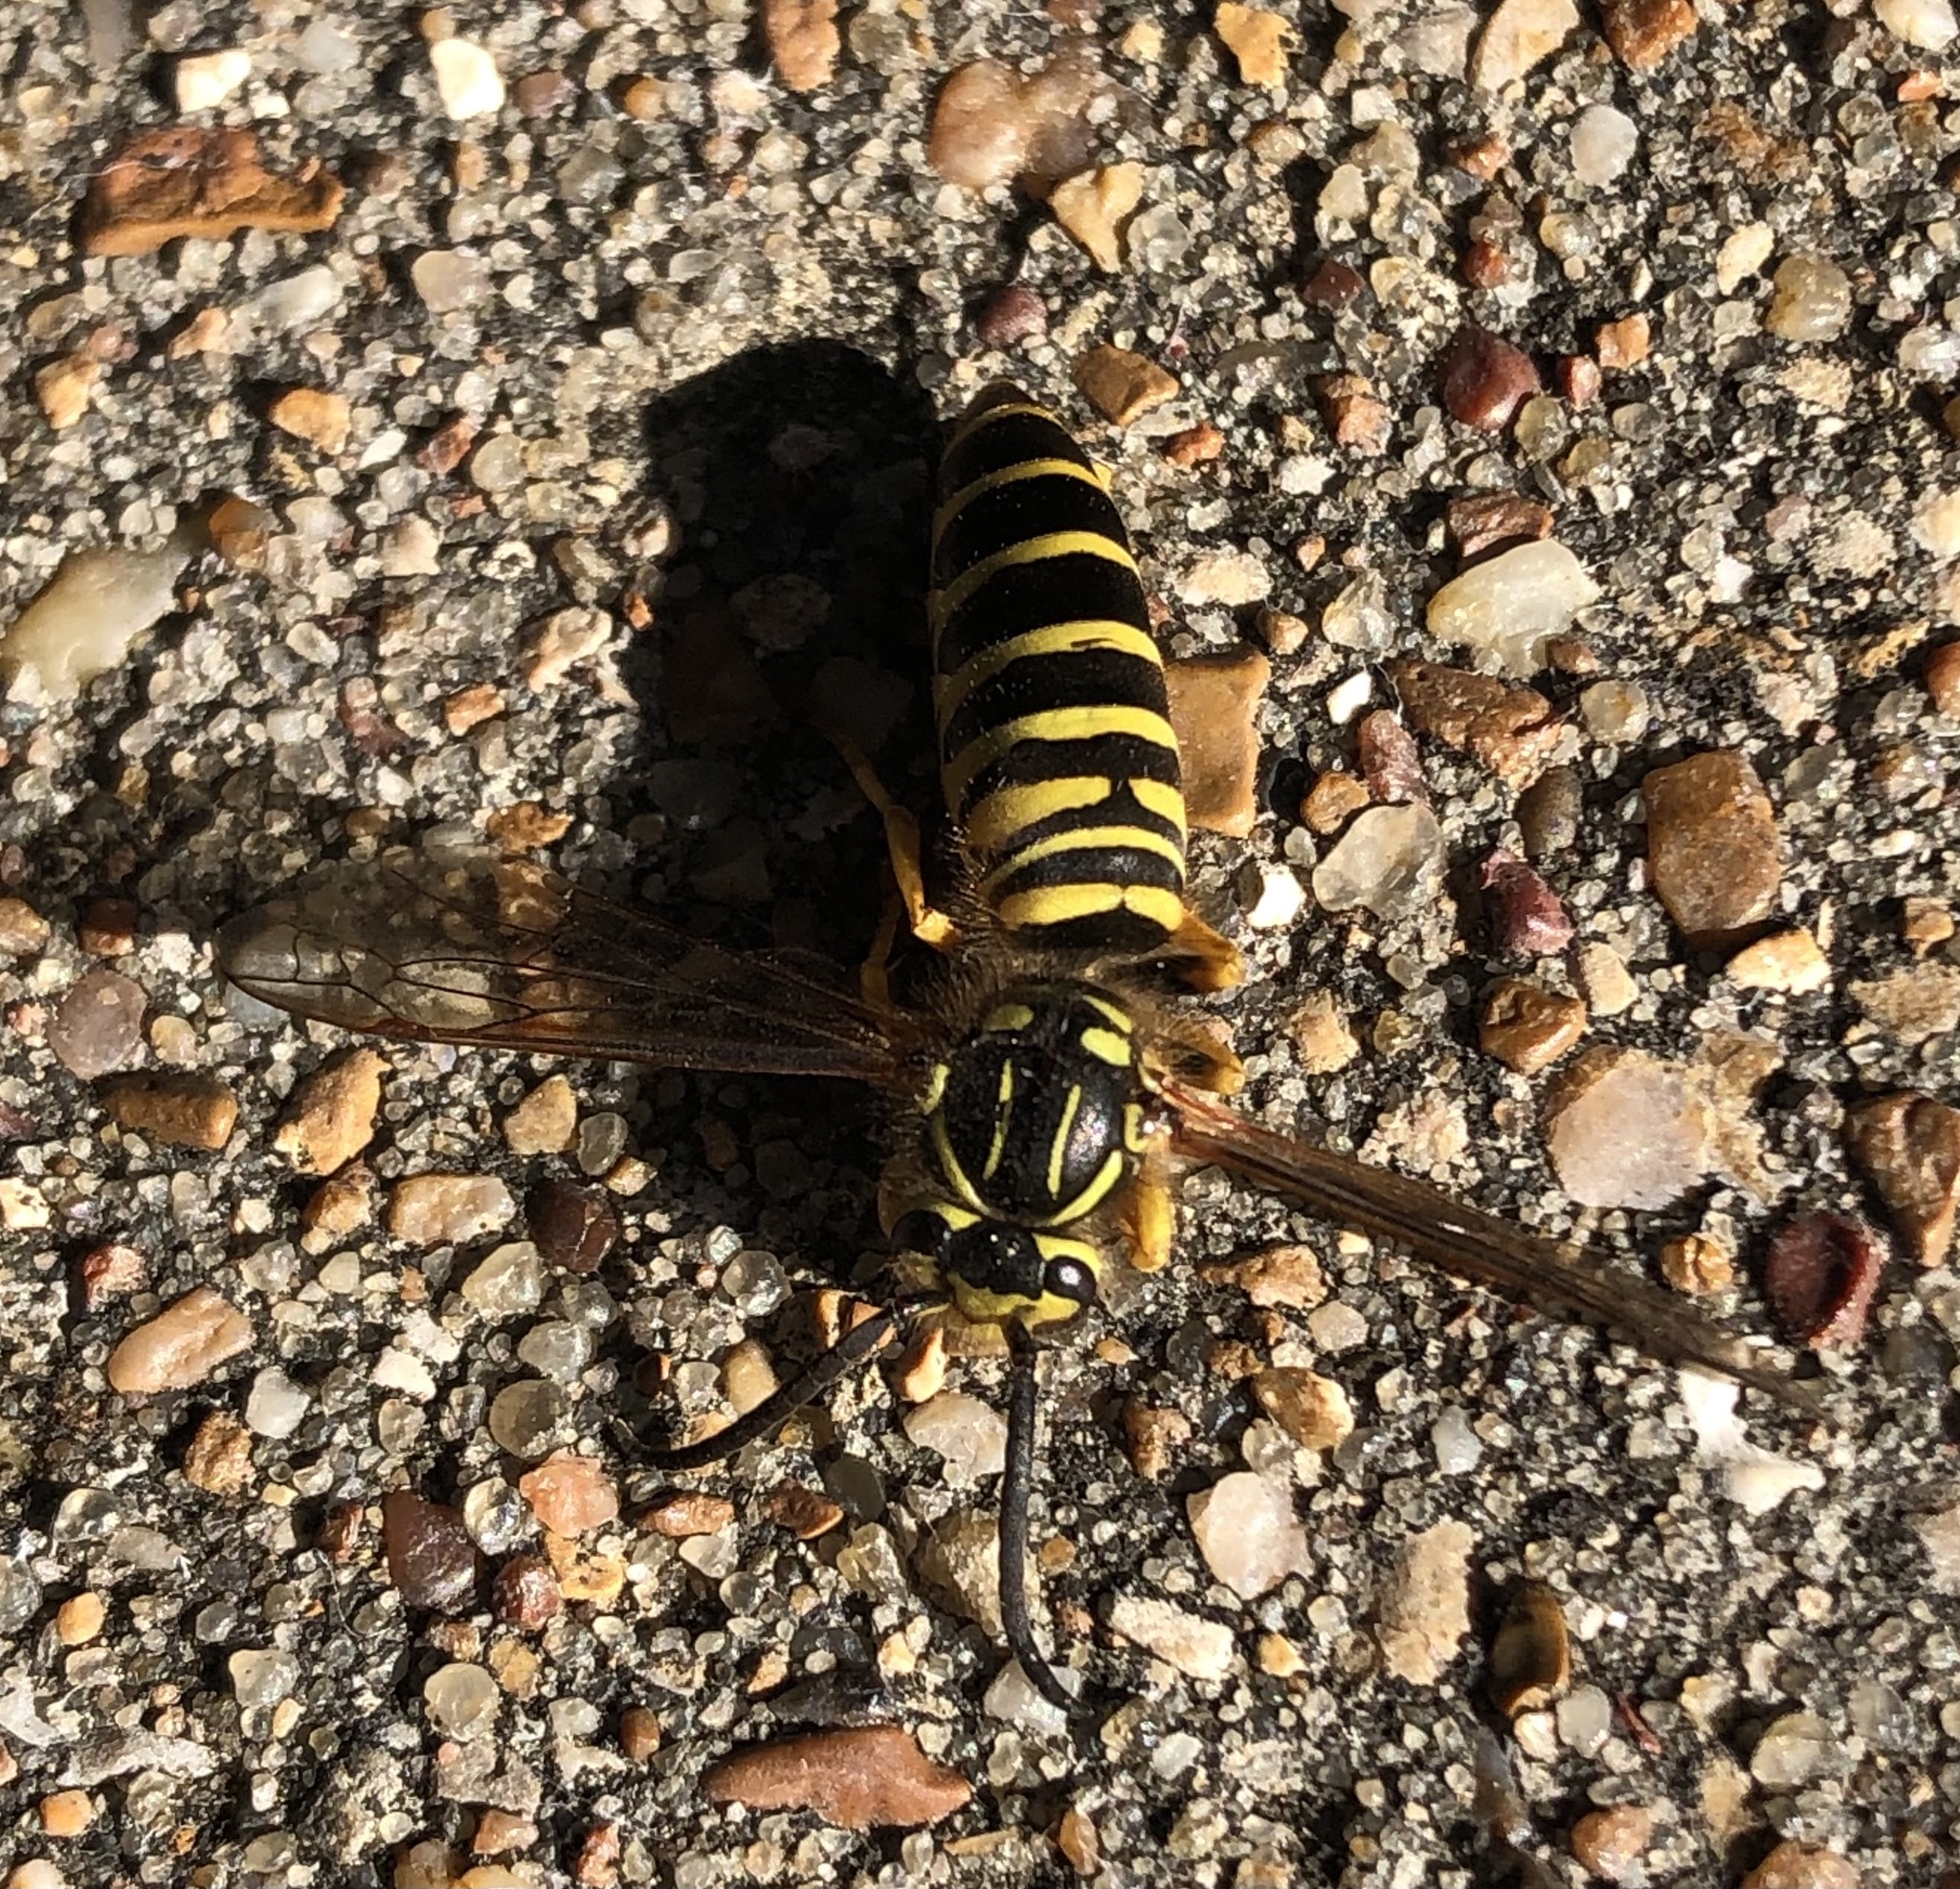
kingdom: Animalia
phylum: Arthropoda
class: Insecta
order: Hymenoptera
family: Vespidae
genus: Vespula
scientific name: Vespula squamosa
